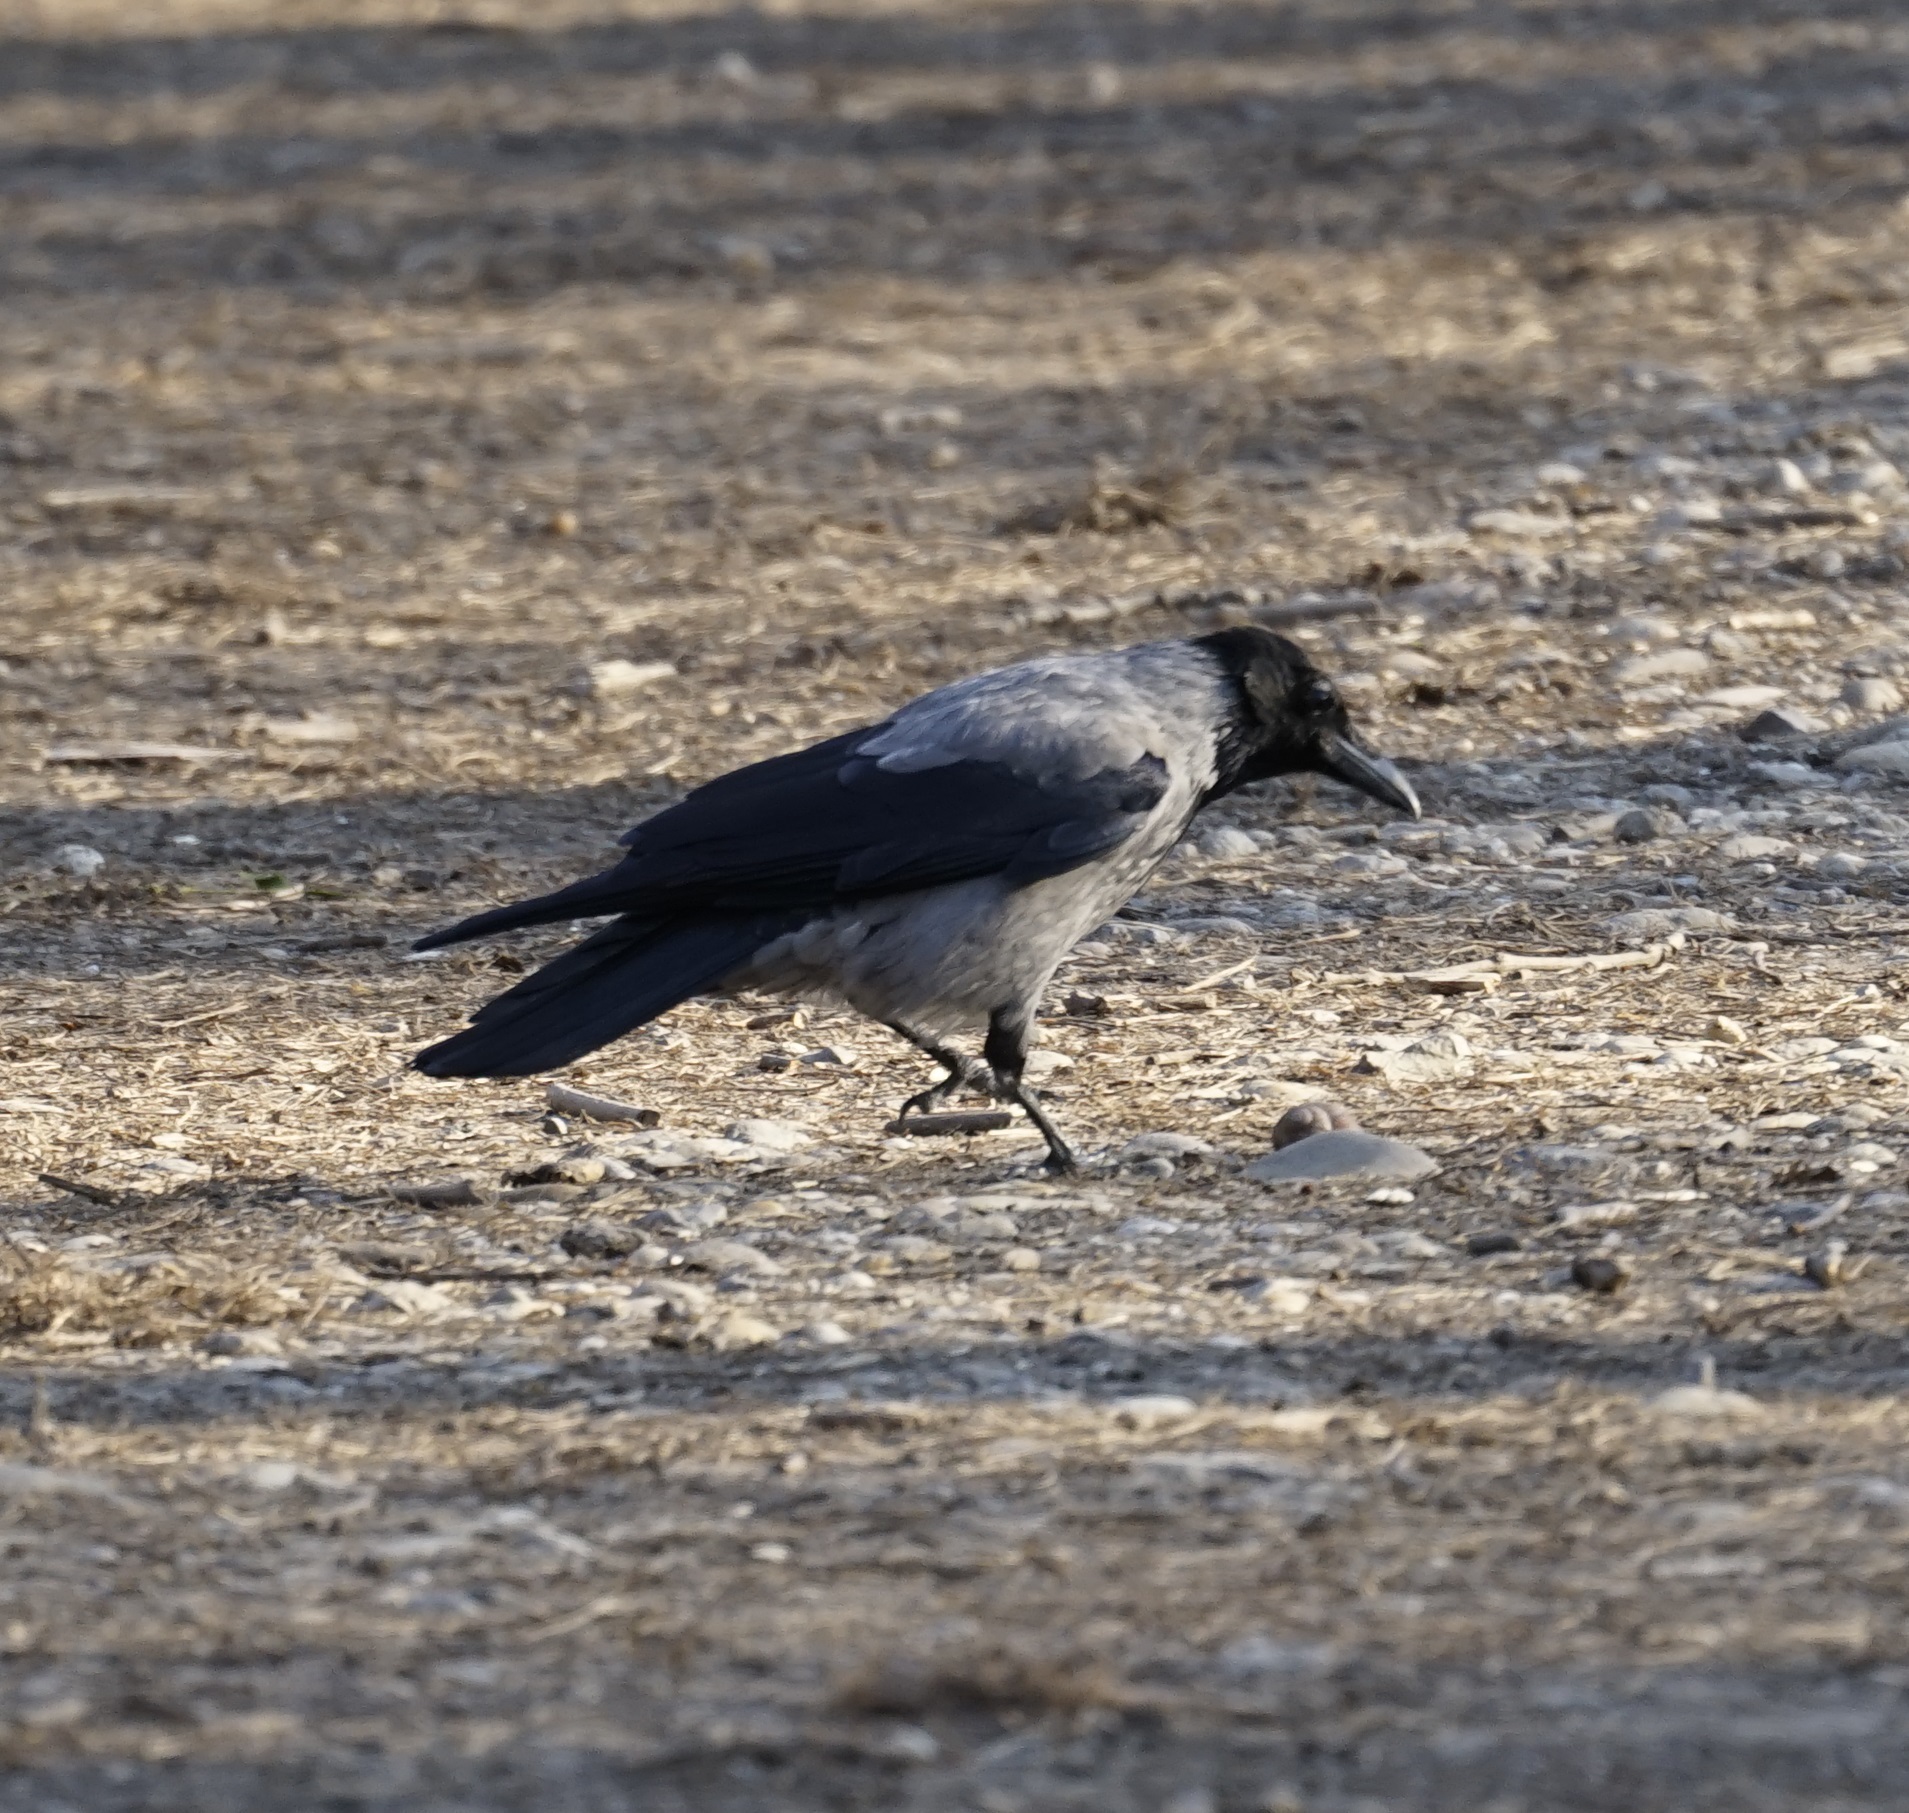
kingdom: Animalia
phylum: Chordata
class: Aves
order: Passeriformes
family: Corvidae
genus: Corvus
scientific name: Corvus cornix
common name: Hooded crow
